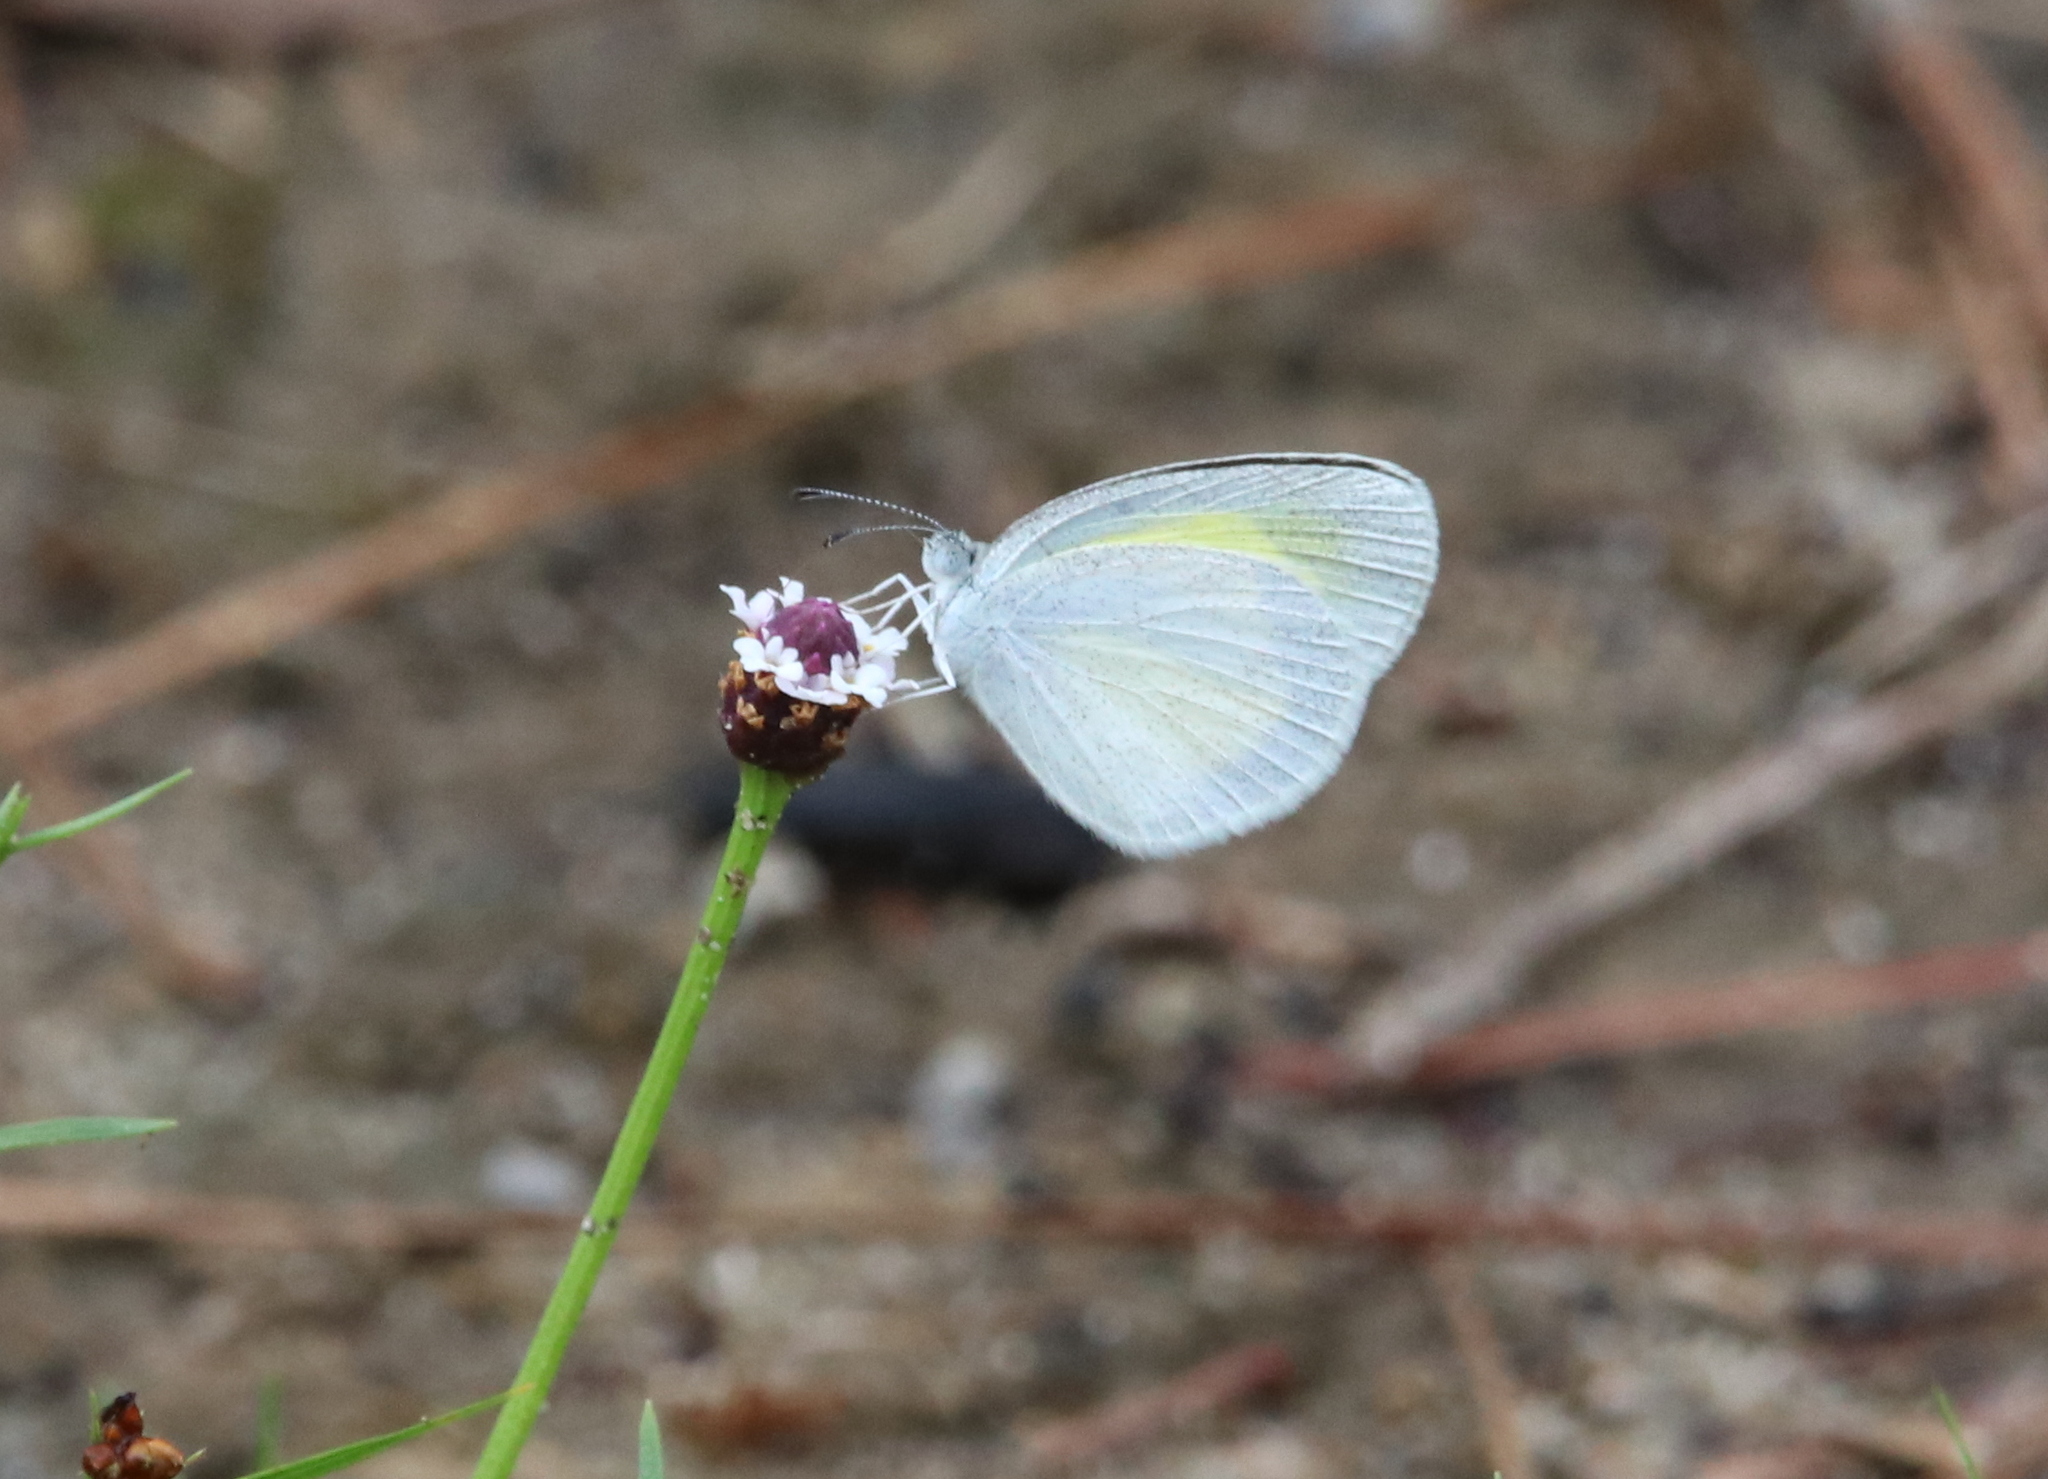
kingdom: Animalia
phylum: Arthropoda
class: Insecta
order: Lepidoptera
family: Pieridae
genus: Eurema
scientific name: Eurema daira
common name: Barred sulphur
